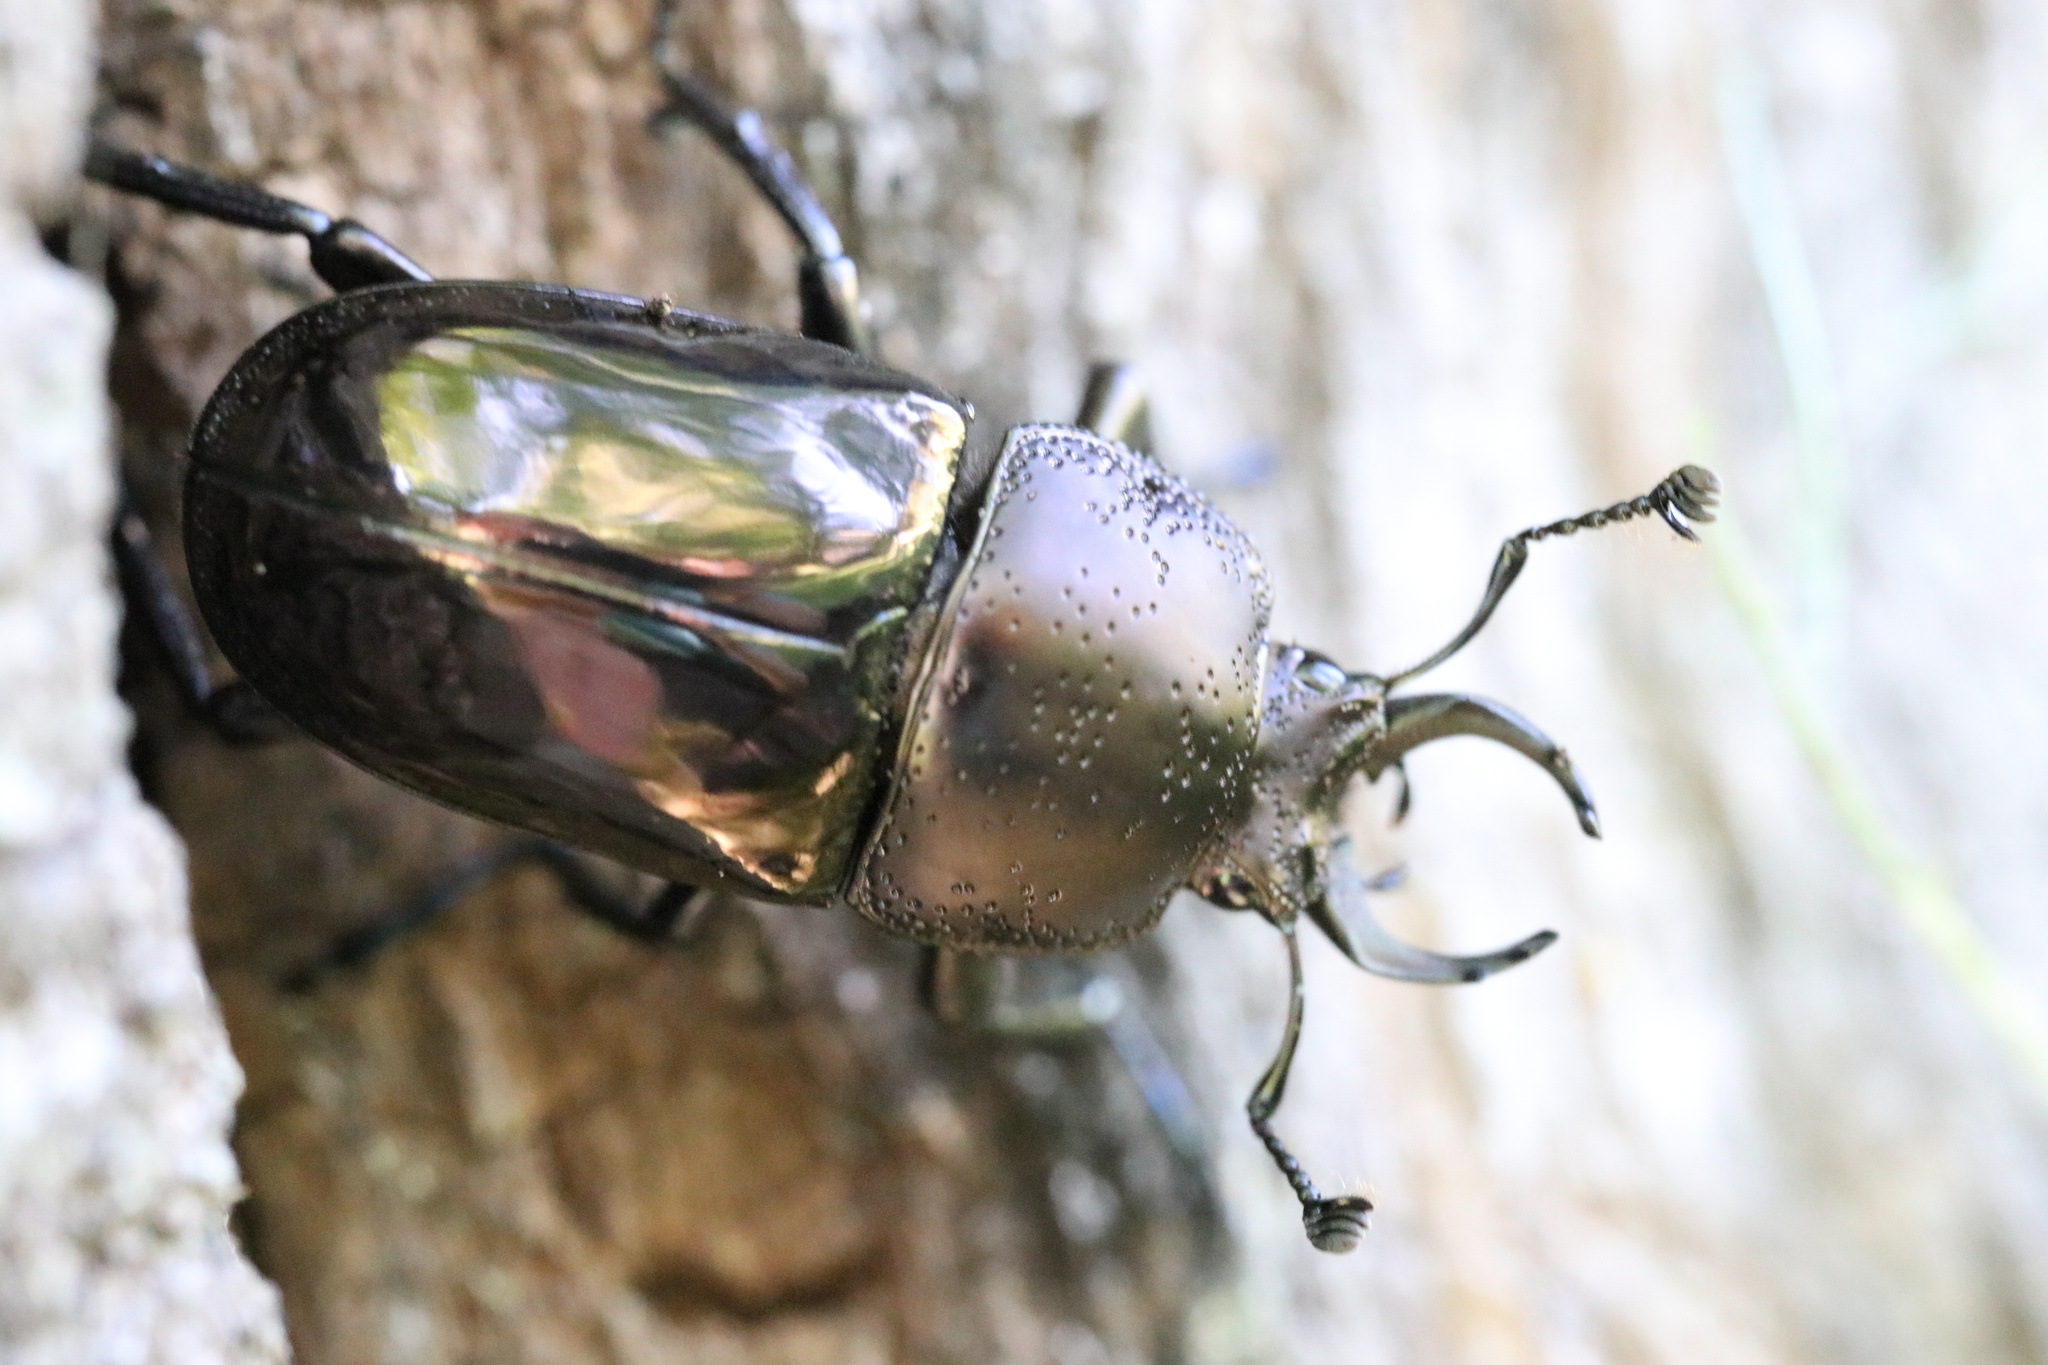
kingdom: Animalia
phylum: Arthropoda
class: Insecta
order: Coleoptera
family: Lucanidae
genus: Streptocerus
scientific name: Streptocerus speciosus
